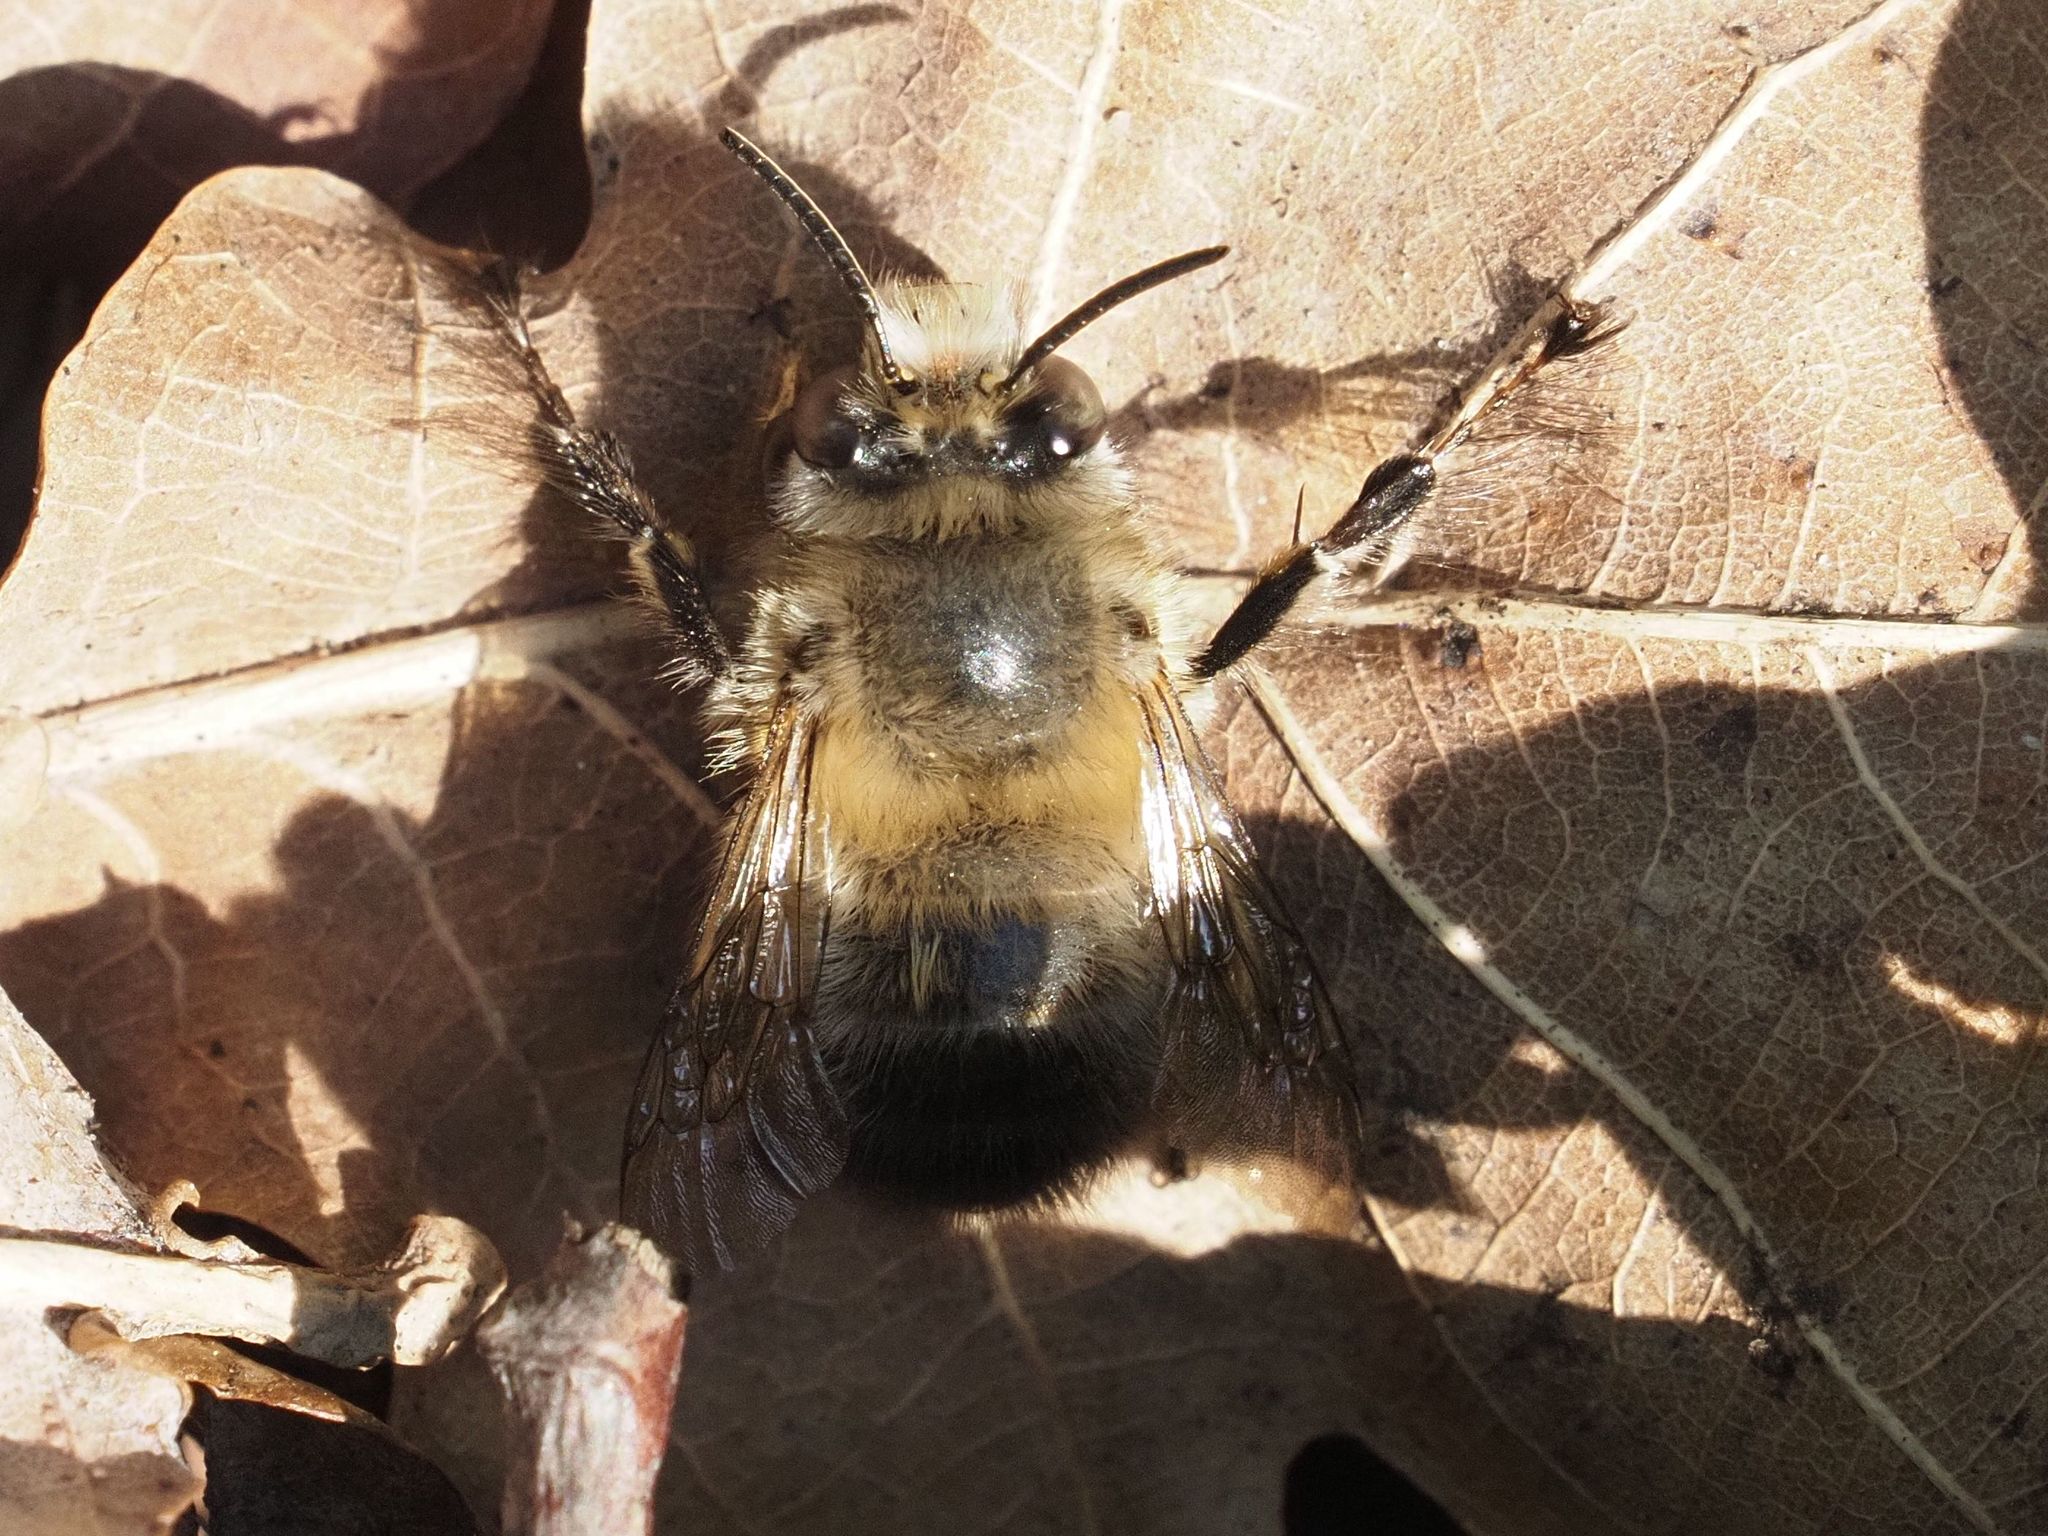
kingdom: Animalia
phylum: Arthropoda
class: Insecta
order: Hymenoptera
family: Apidae
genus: Anthophora
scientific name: Anthophora plumipes
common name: Hairy-footed flower bee
